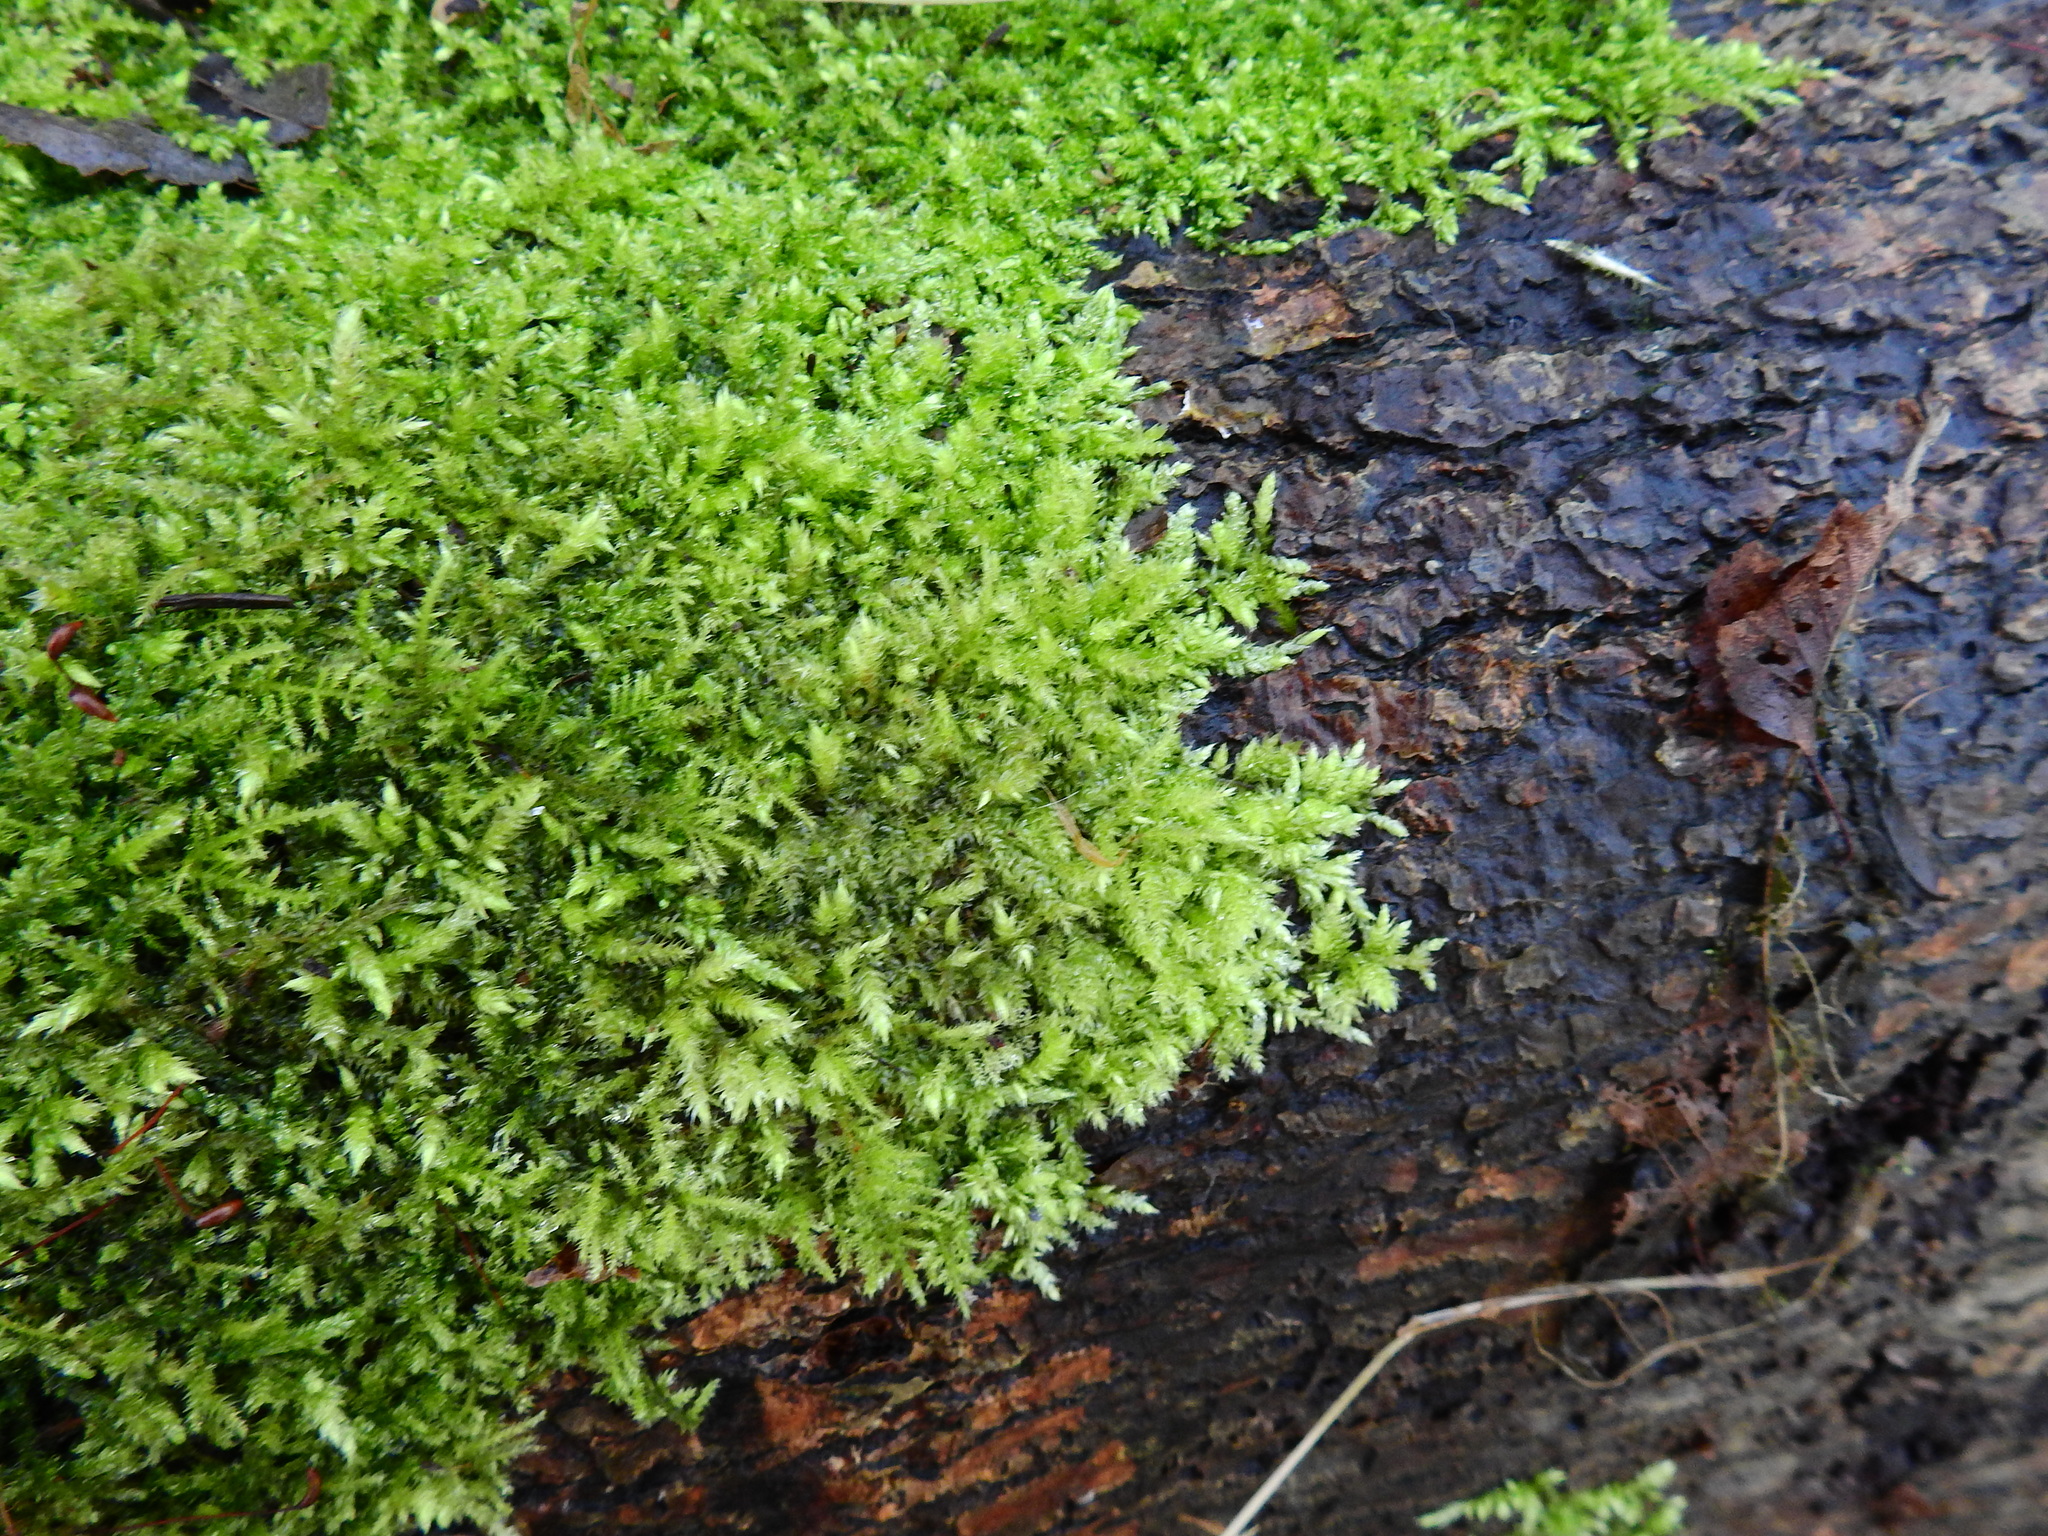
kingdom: Plantae
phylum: Bryophyta
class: Bryopsida
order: Hypnales
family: Brachytheciaceae
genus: Brachythecium
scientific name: Brachythecium rutabulum
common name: Rough-stalked feather-moss
